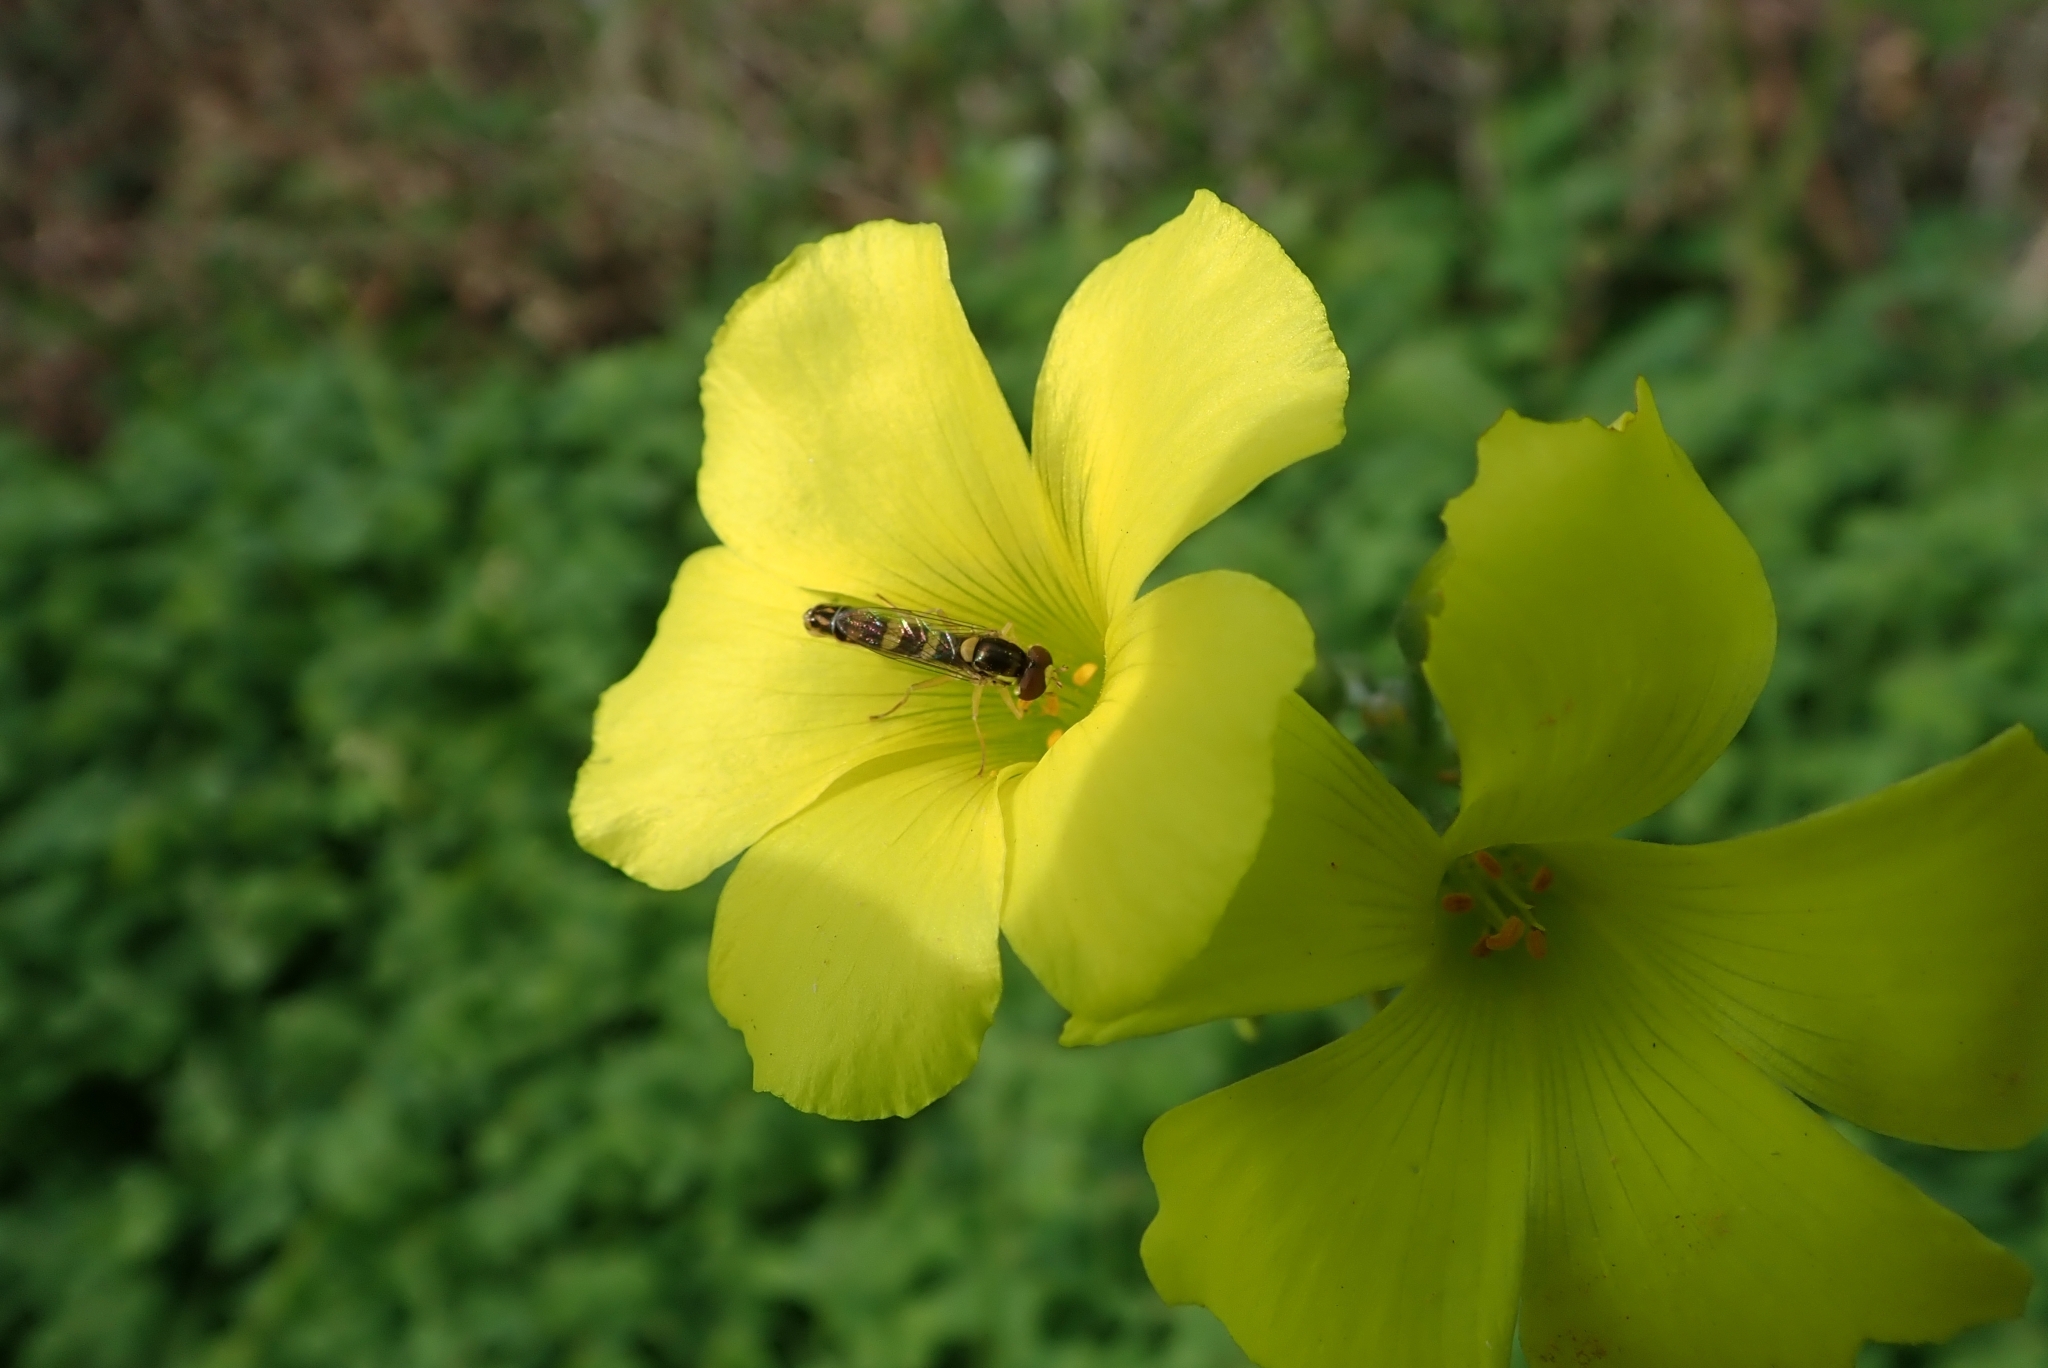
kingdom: Animalia
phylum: Arthropoda
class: Insecta
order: Diptera
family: Syrphidae
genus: Sphaerophoria
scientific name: Sphaerophoria scripta
